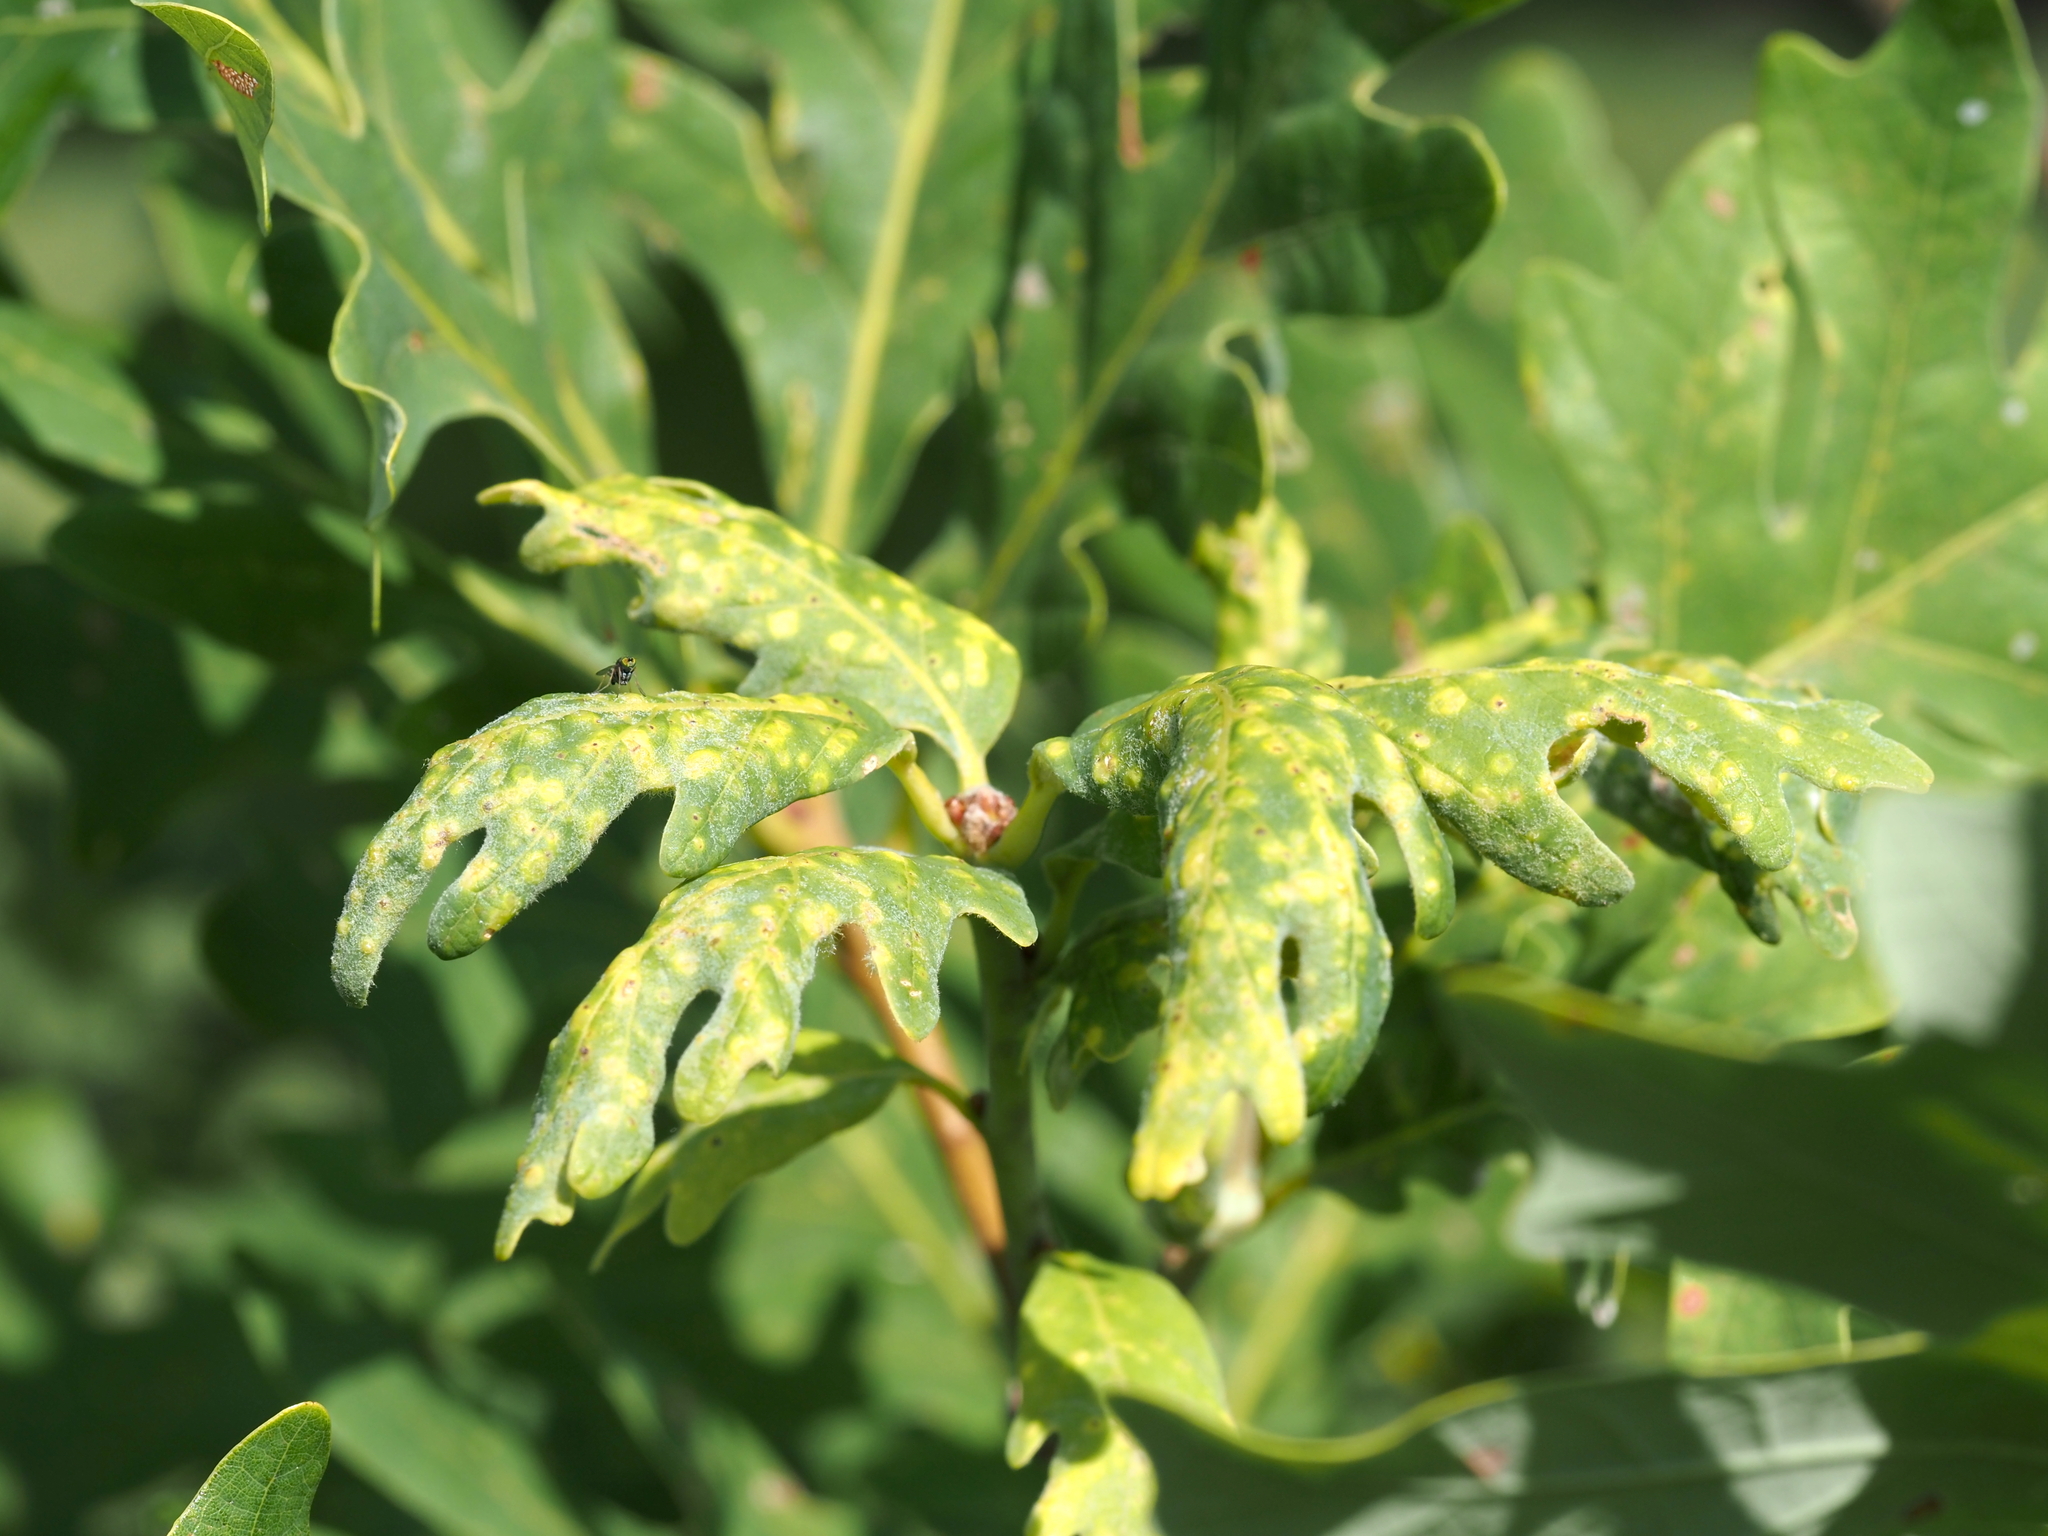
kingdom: Animalia
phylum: Arthropoda
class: Insecta
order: Hymenoptera
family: Cynipidae
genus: Neuroterus
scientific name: Neuroterus quercusverrucarum
